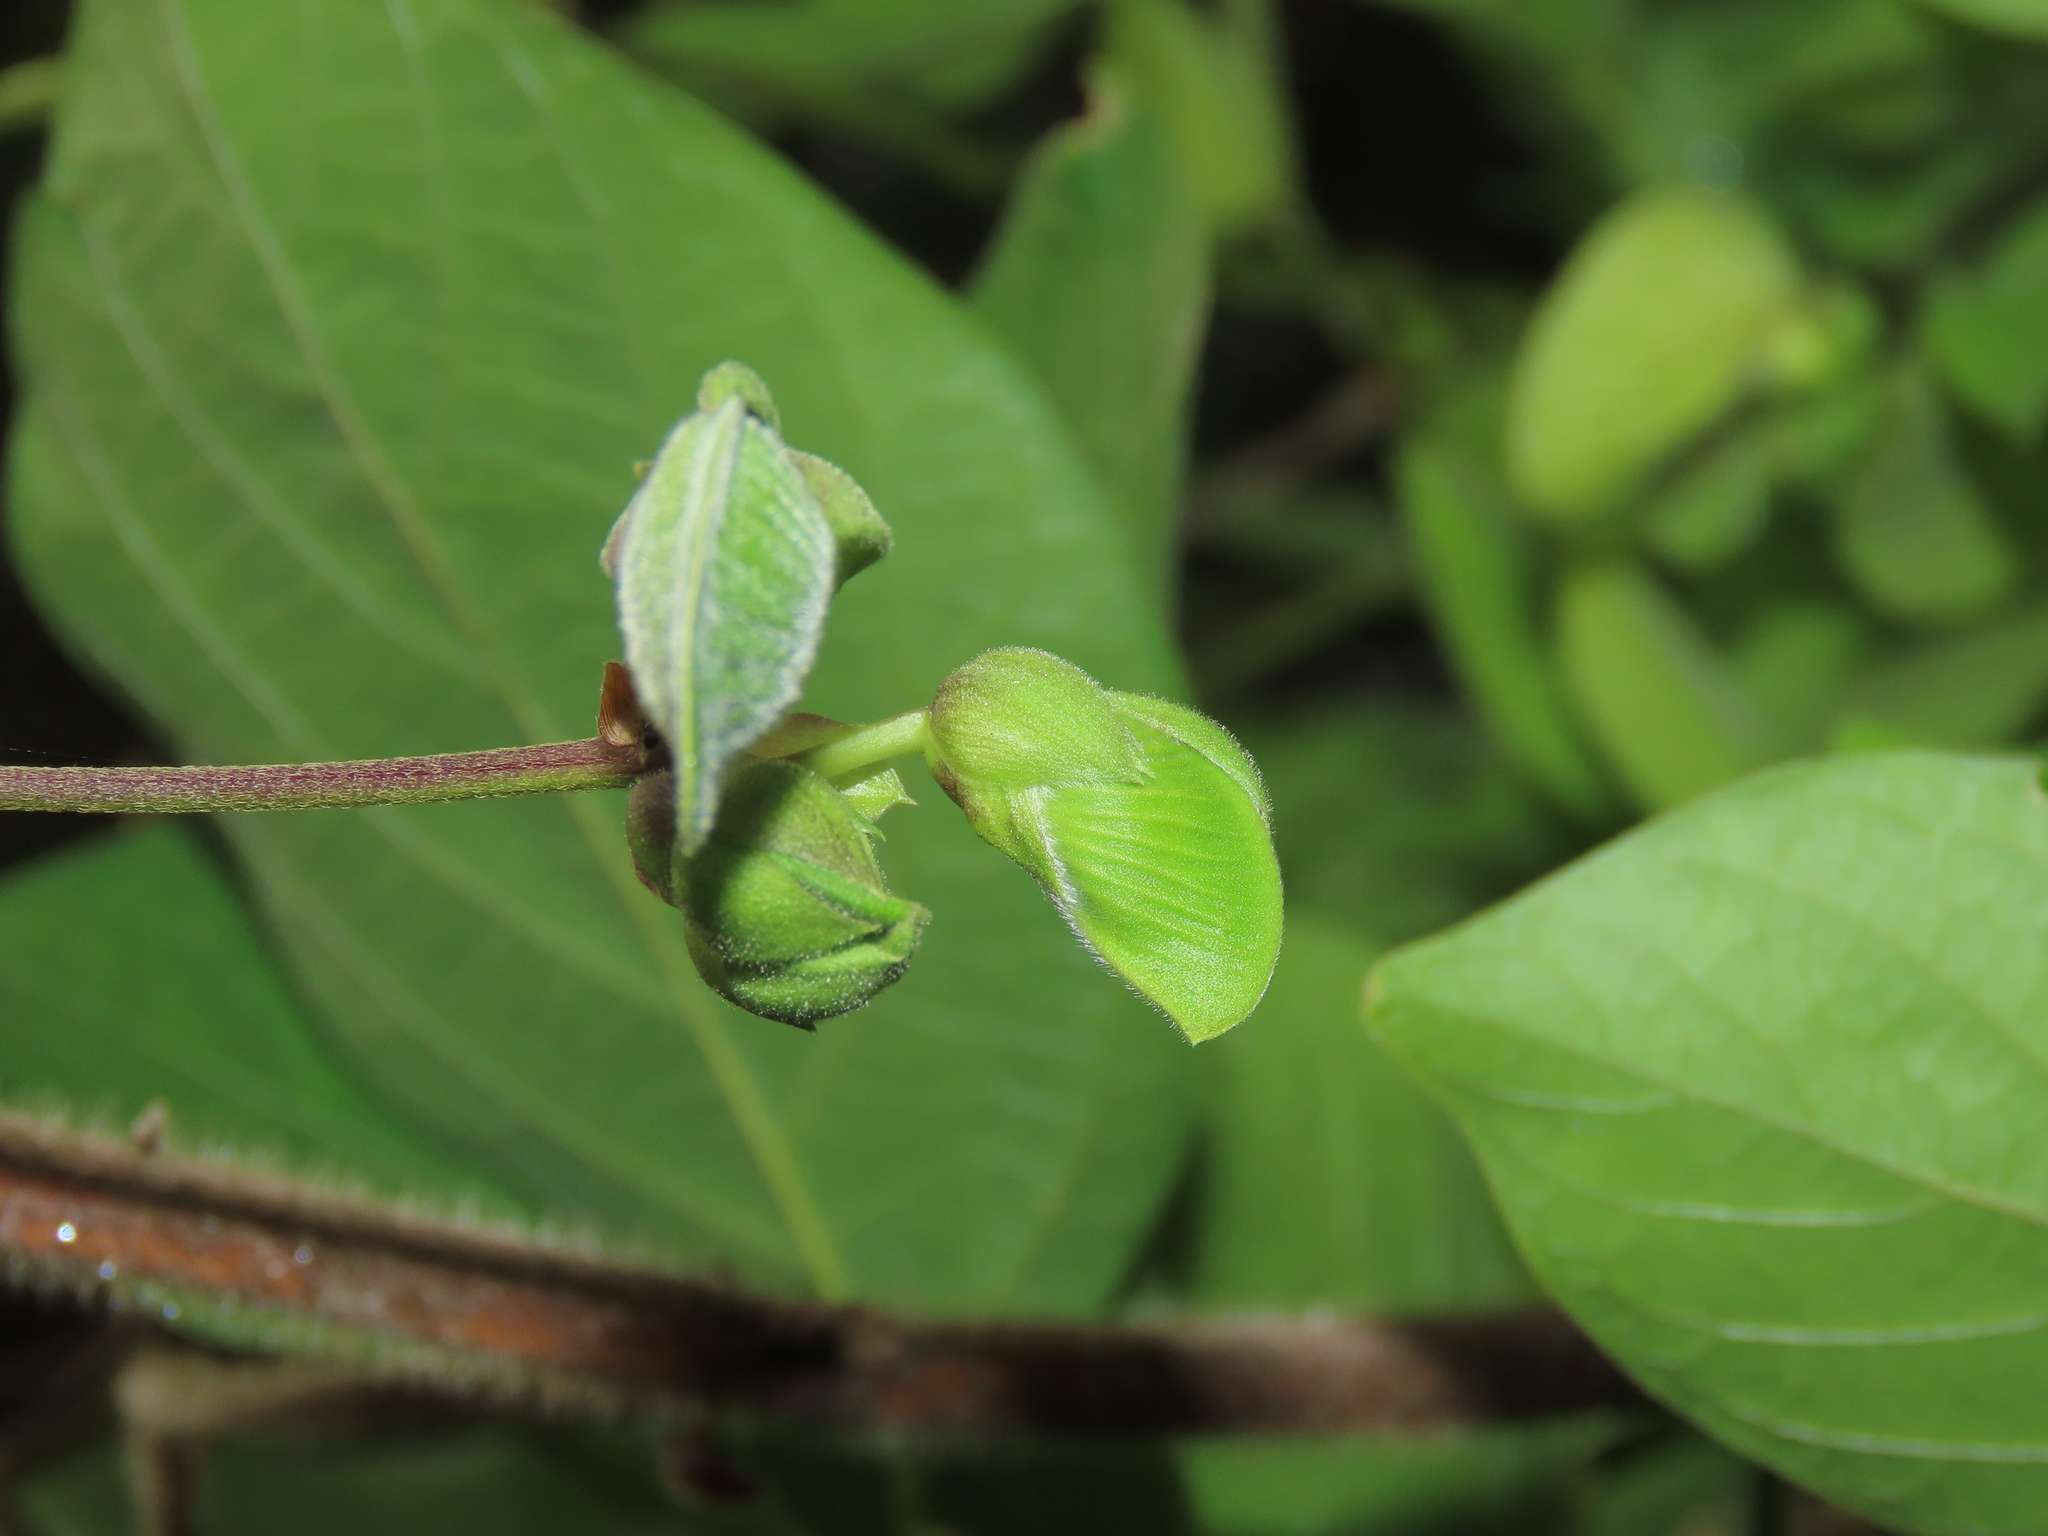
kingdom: Plantae
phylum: Tracheophyta
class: Magnoliopsida
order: Fabales
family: Fabaceae
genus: Centrosema
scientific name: Centrosema pubescens
